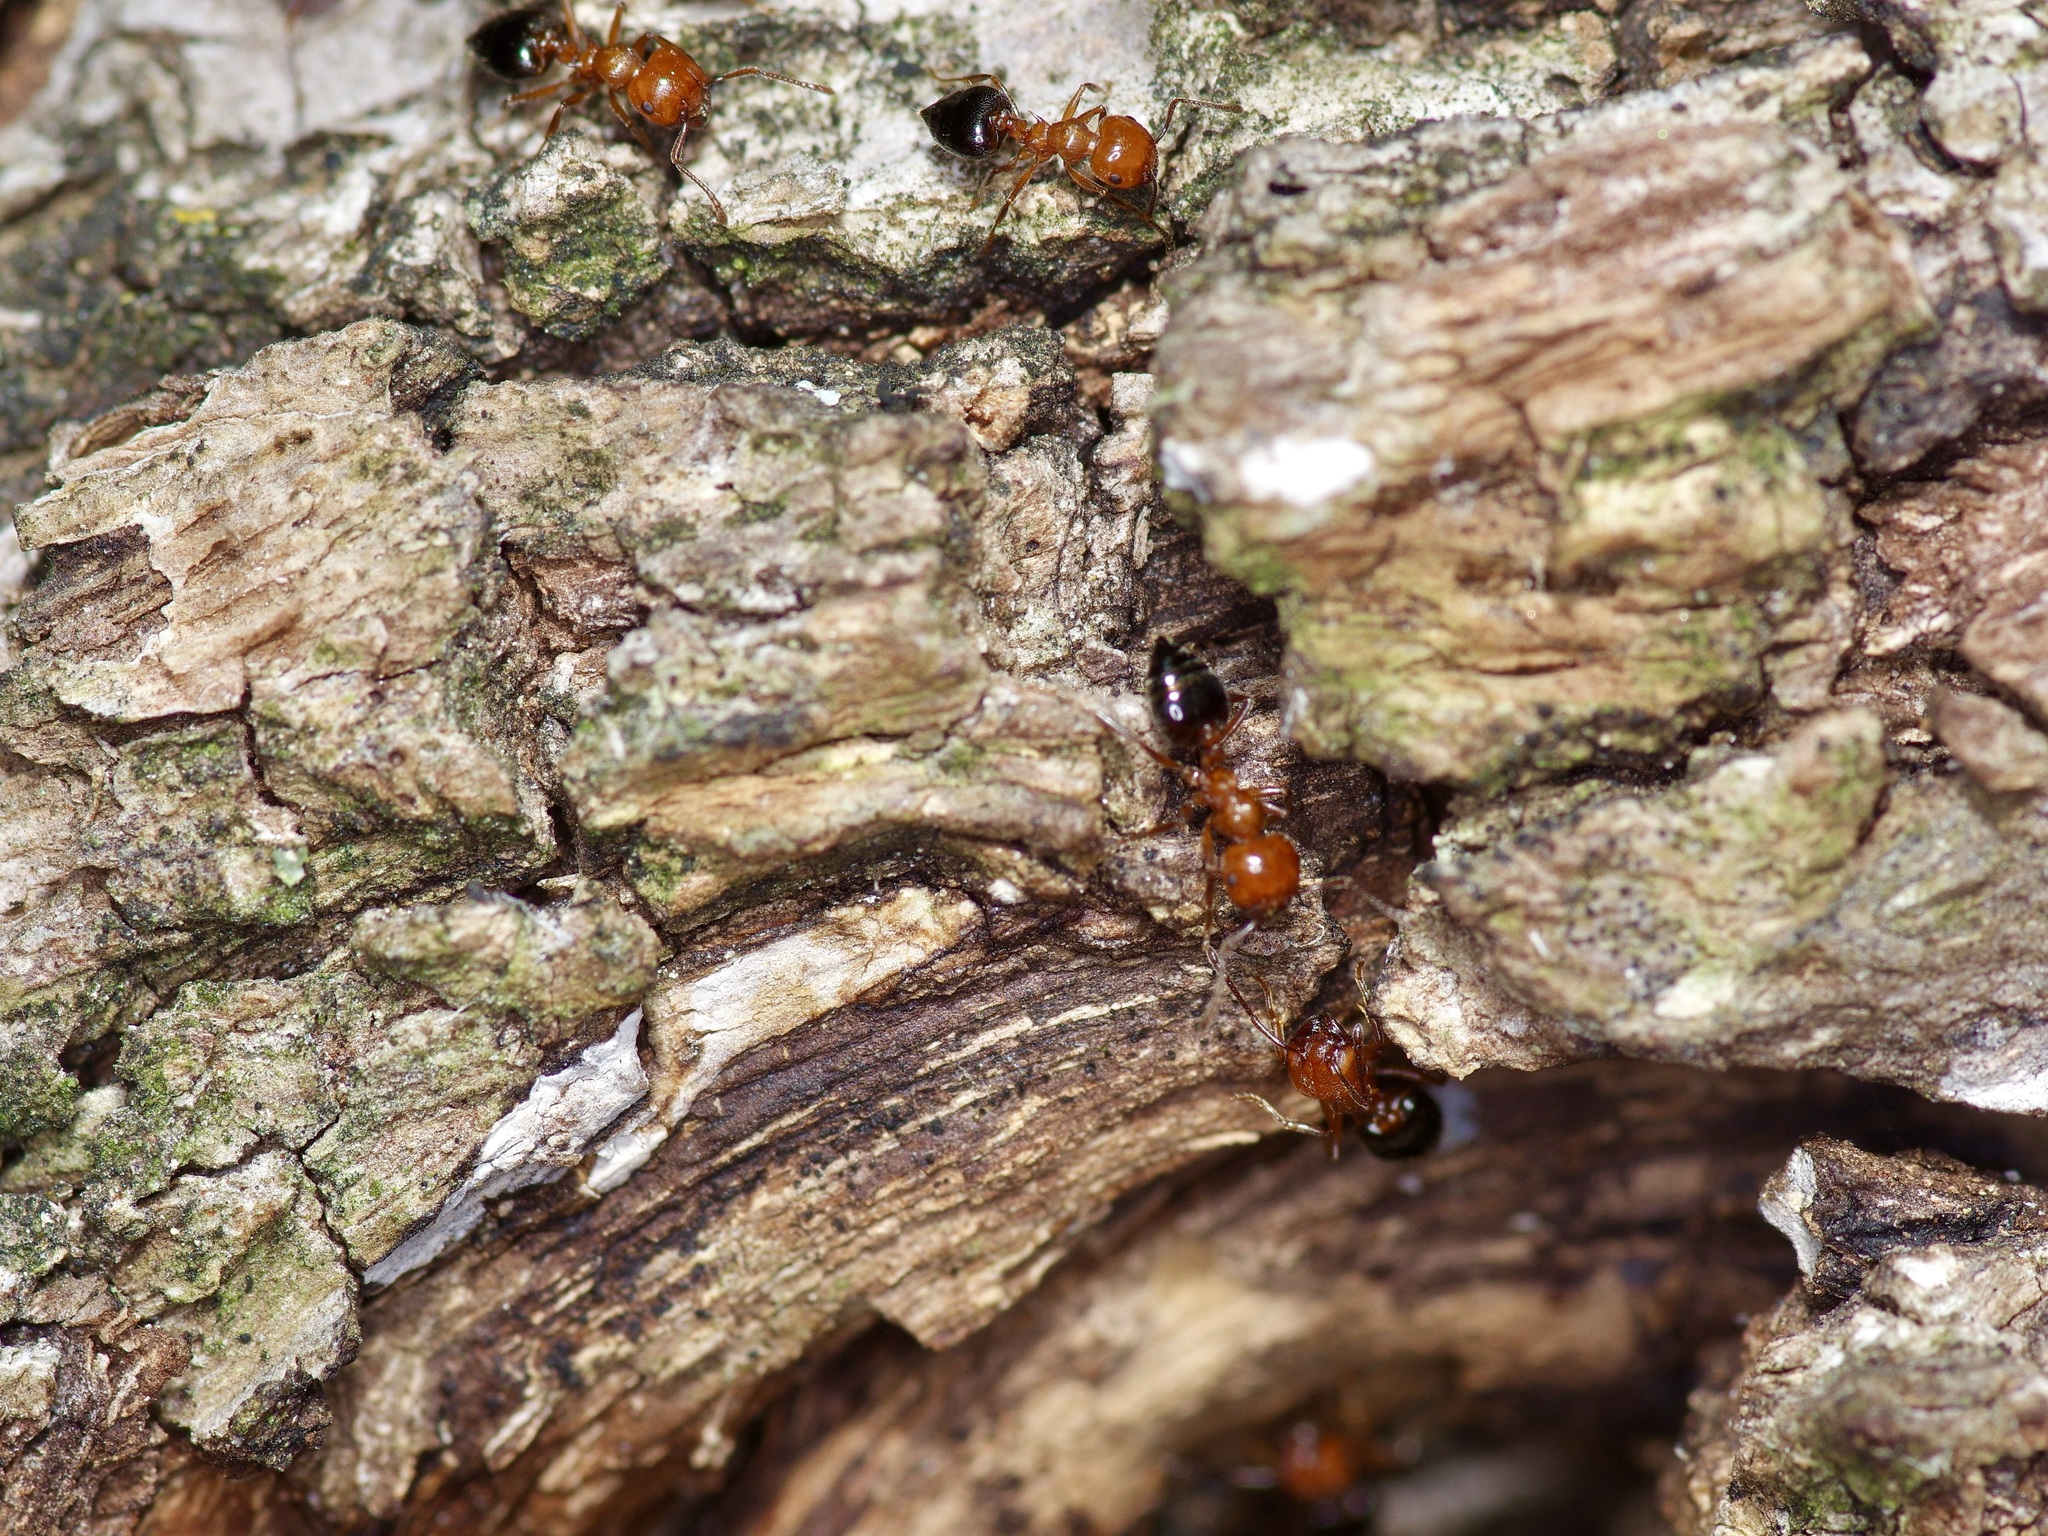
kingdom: Animalia
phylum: Arthropoda
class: Insecta
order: Hymenoptera
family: Formicidae
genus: Crematogaster
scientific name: Crematogaster laeviuscula
